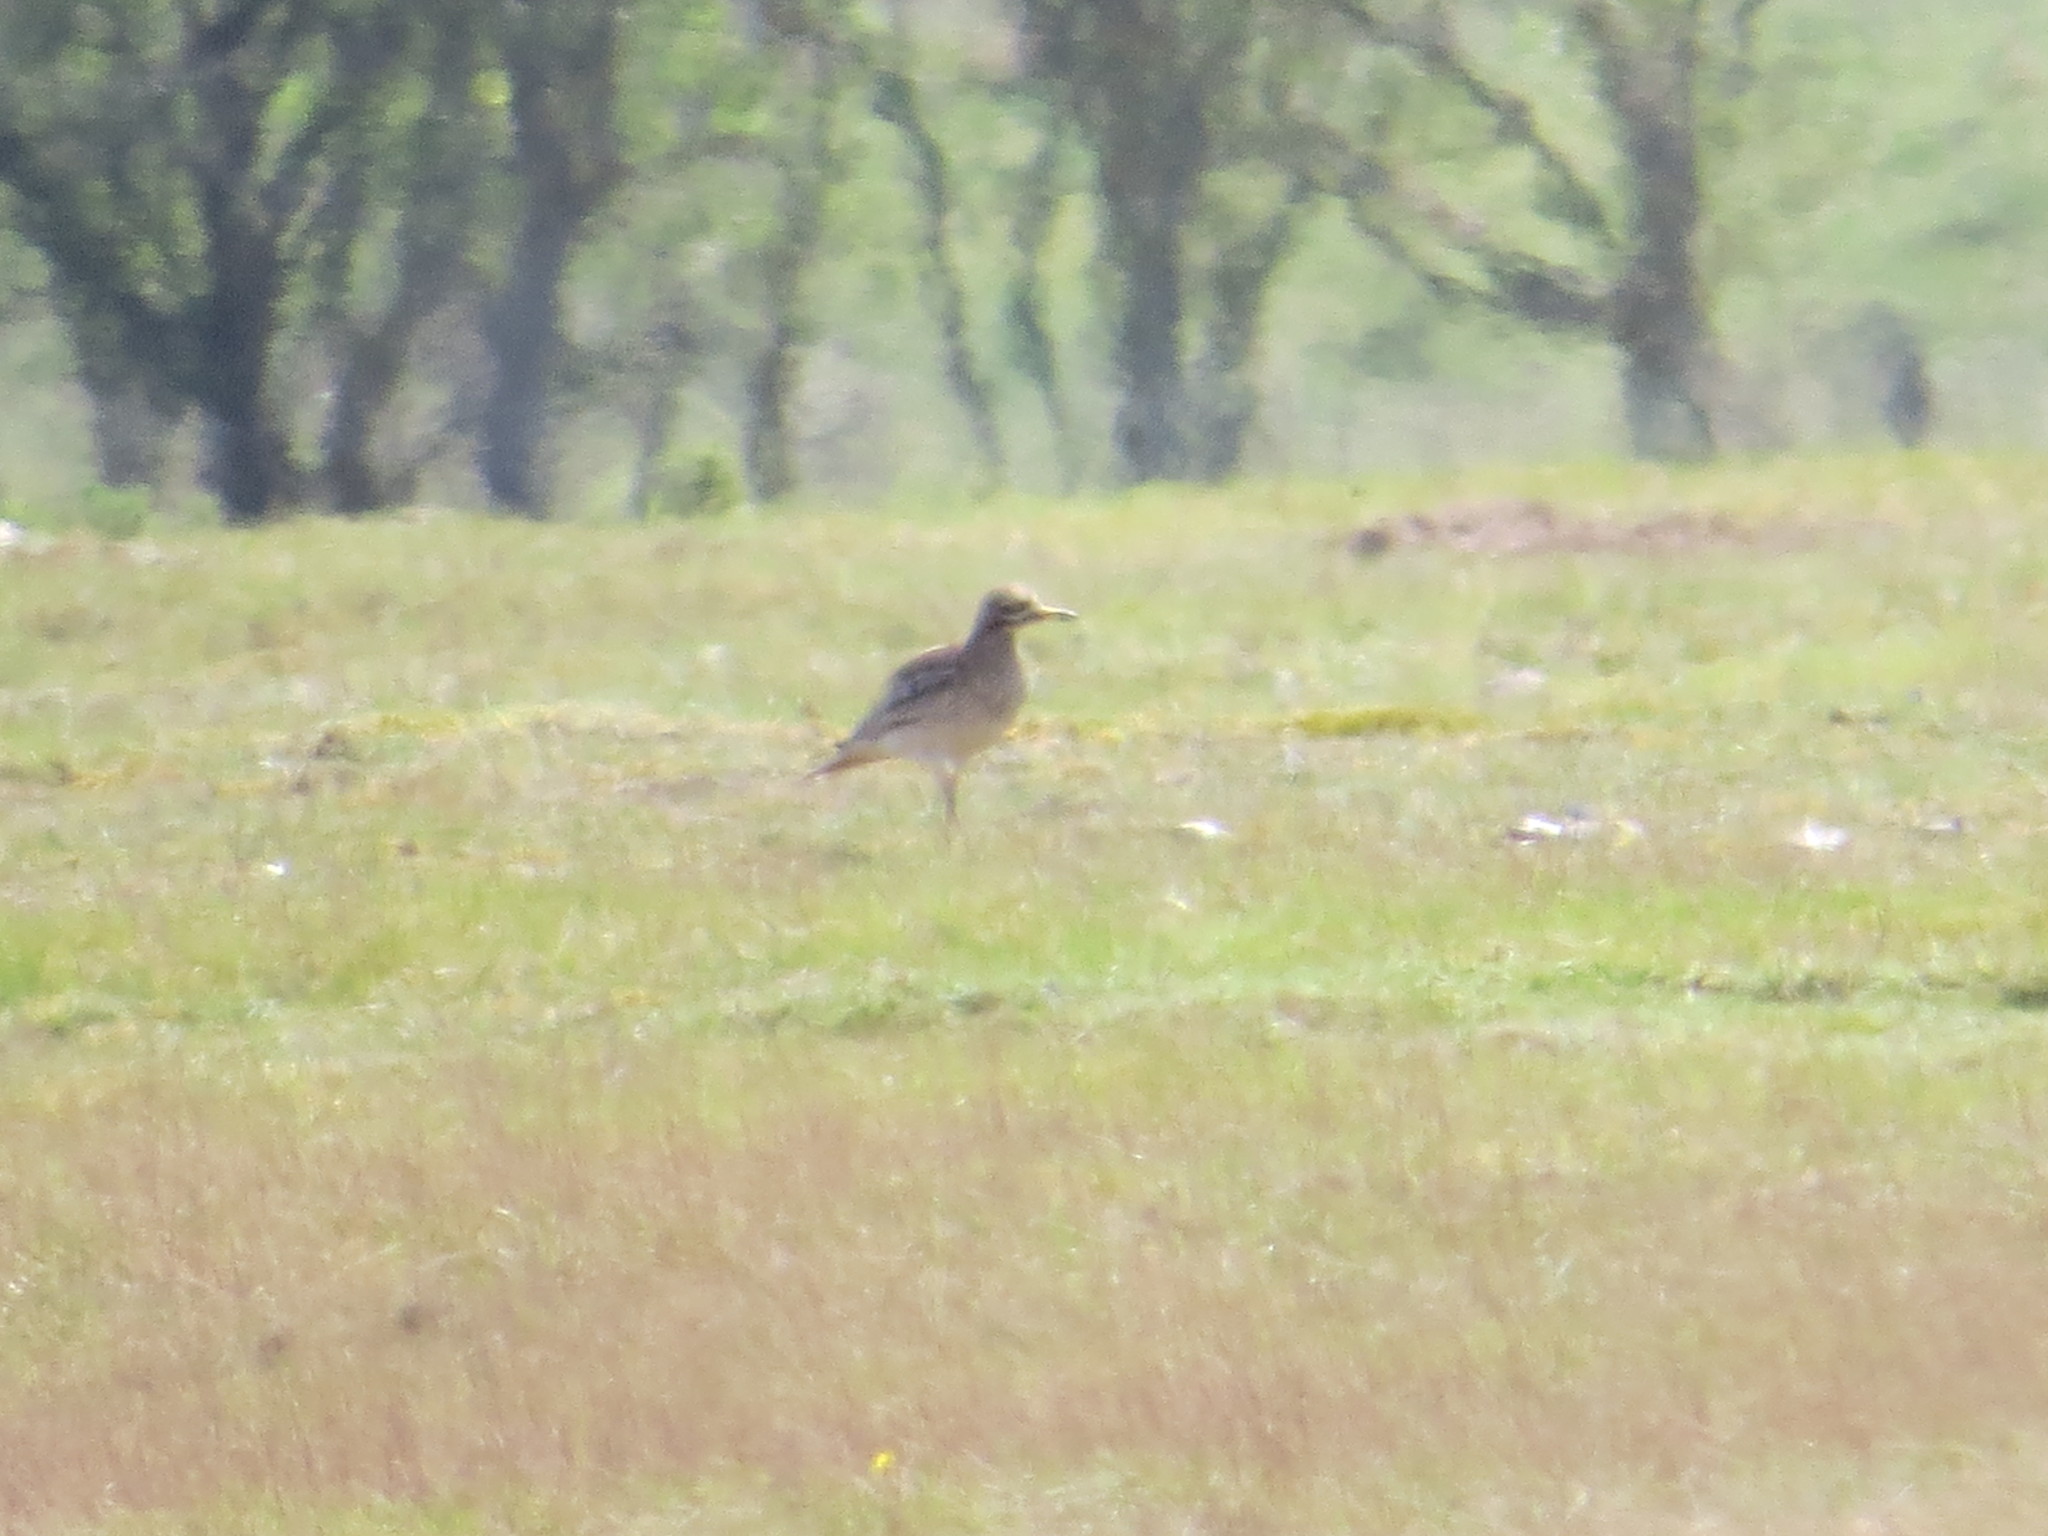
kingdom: Animalia
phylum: Chordata
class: Aves
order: Charadriiformes
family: Burhinidae
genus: Burhinus
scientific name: Burhinus oedicnemus
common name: Eurasian stone-curlew
